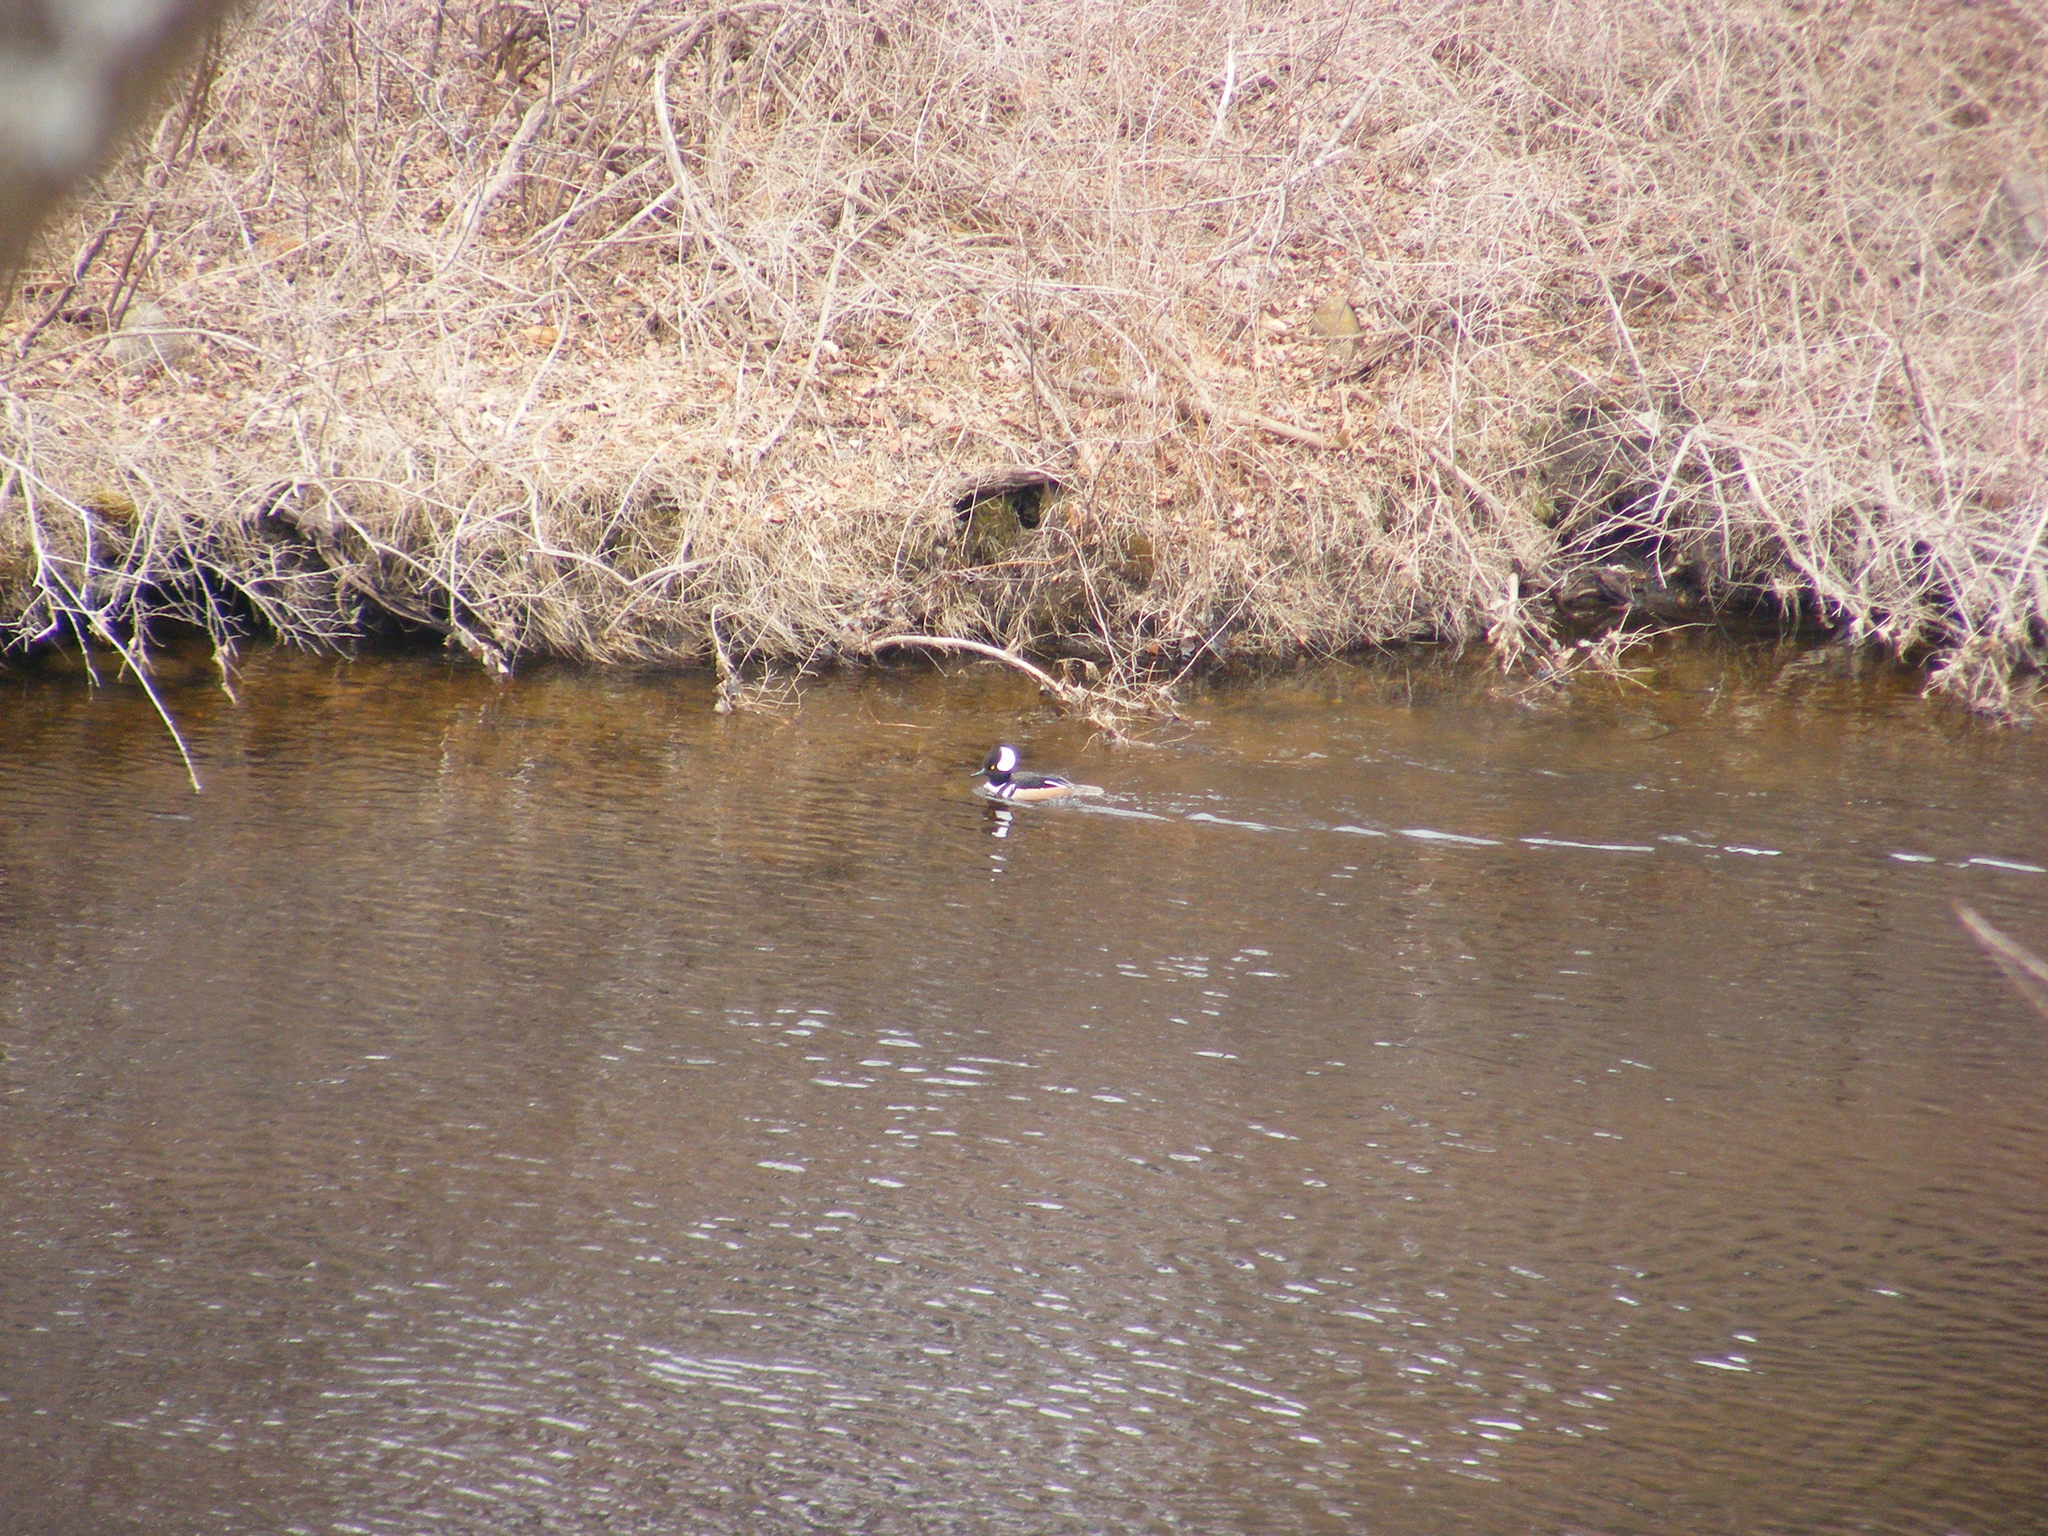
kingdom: Animalia
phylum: Chordata
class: Aves
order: Anseriformes
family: Anatidae
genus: Lophodytes
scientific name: Lophodytes cucullatus
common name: Hooded merganser
